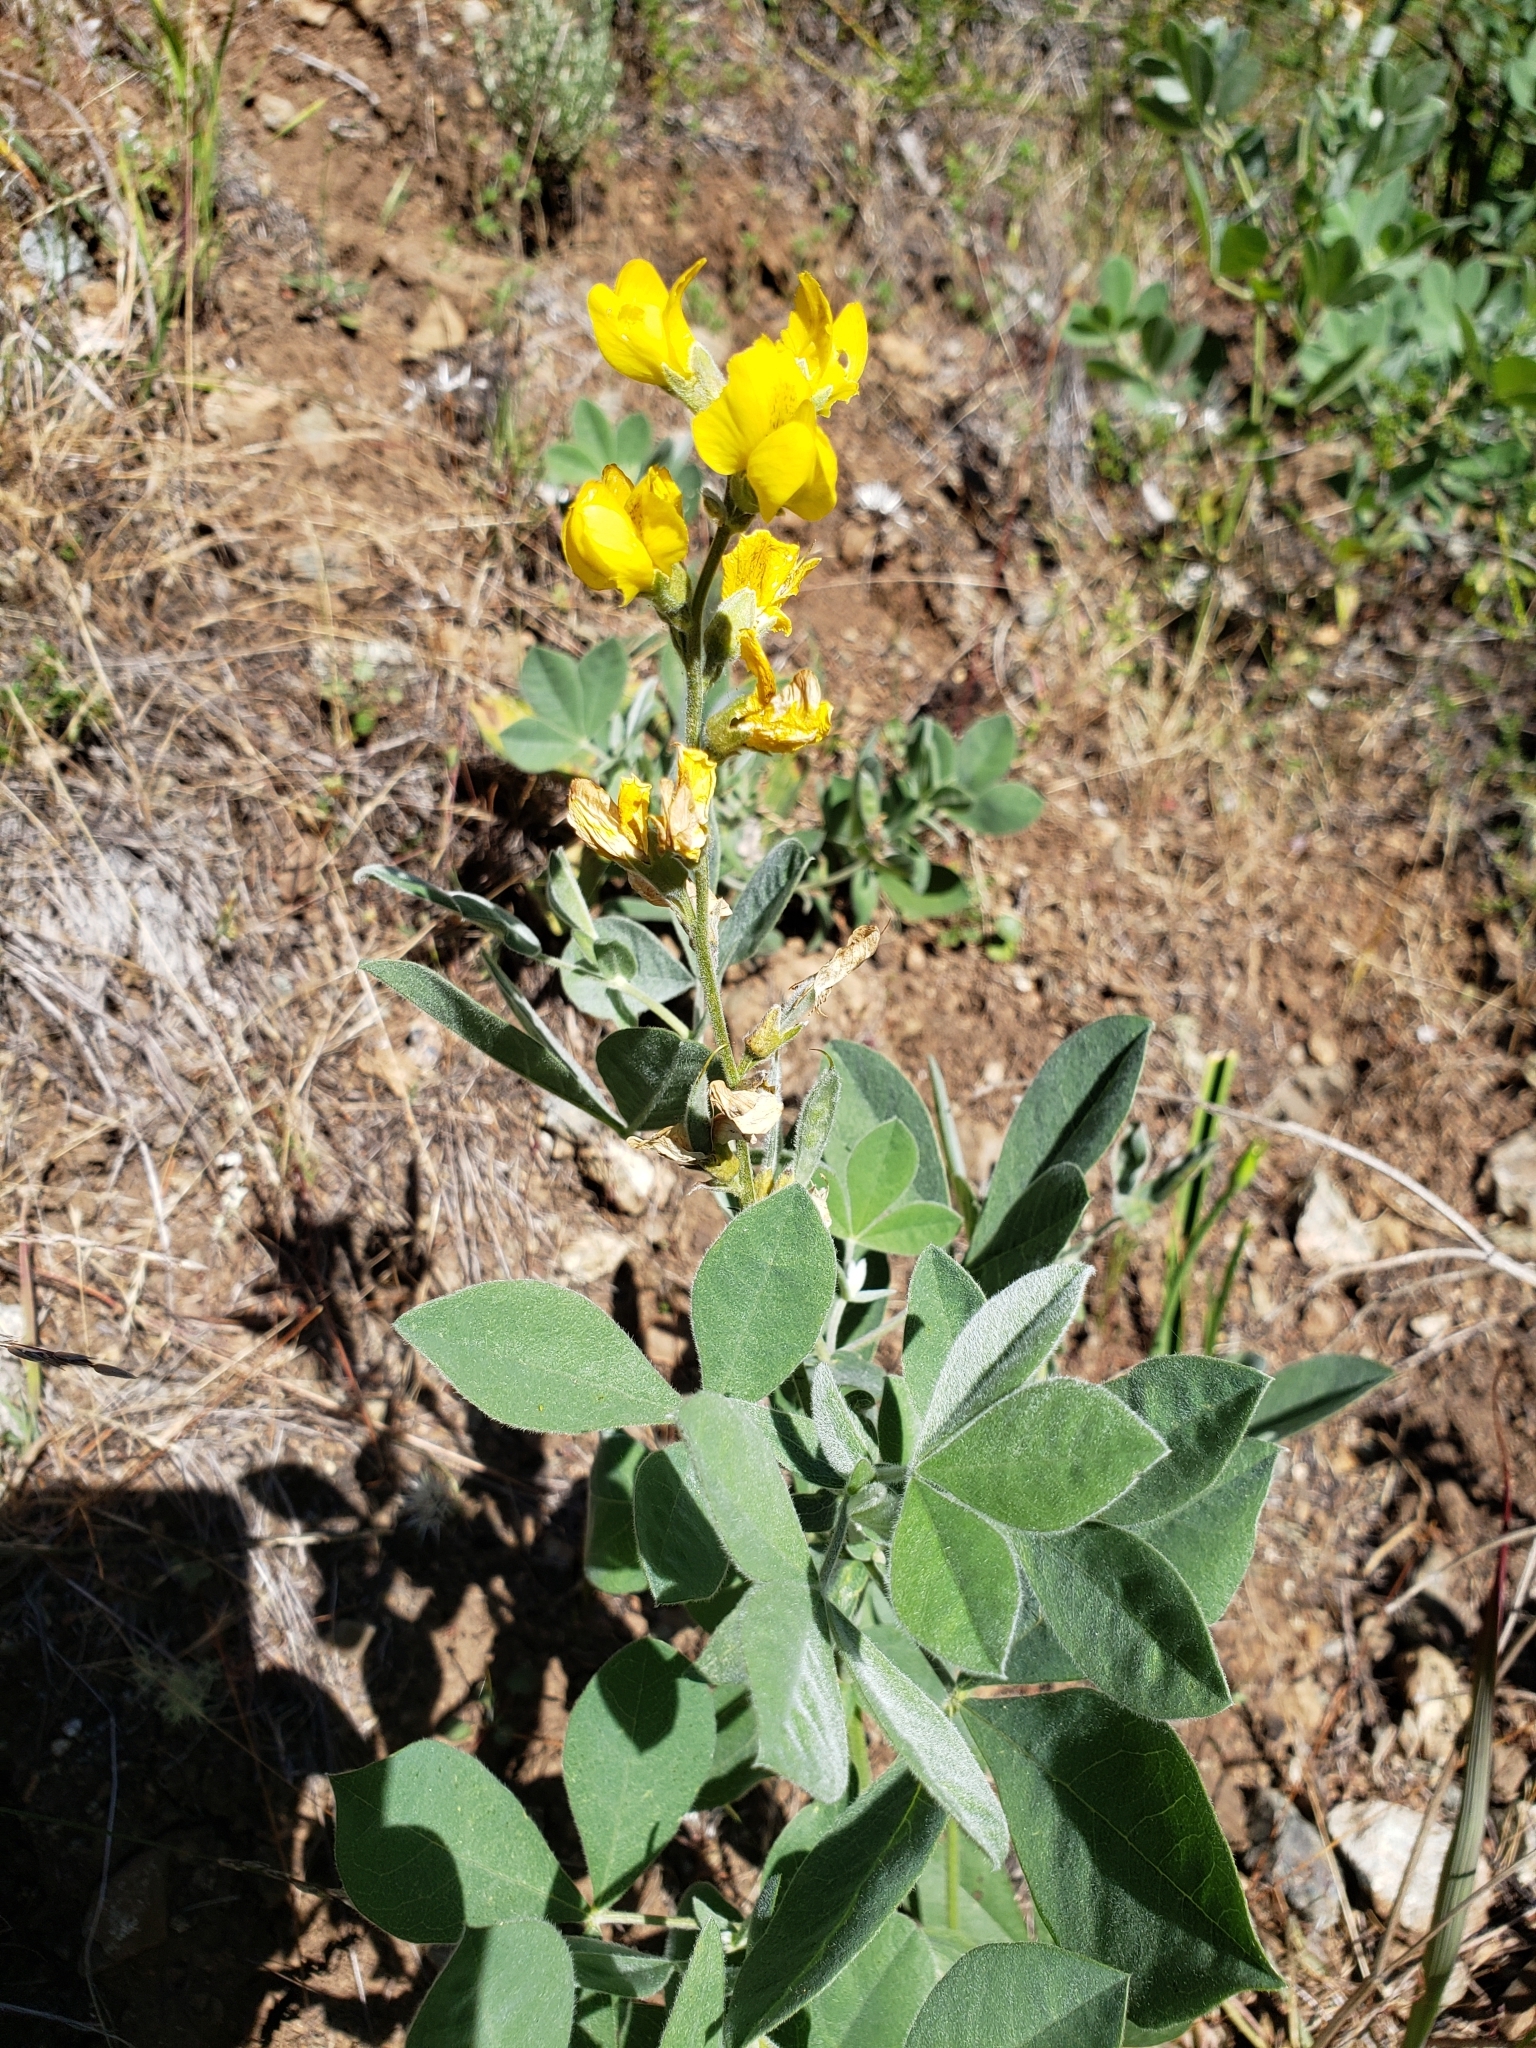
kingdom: Plantae
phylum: Tracheophyta
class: Magnoliopsida
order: Fabales
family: Fabaceae
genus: Thermopsis
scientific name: Thermopsis californica
